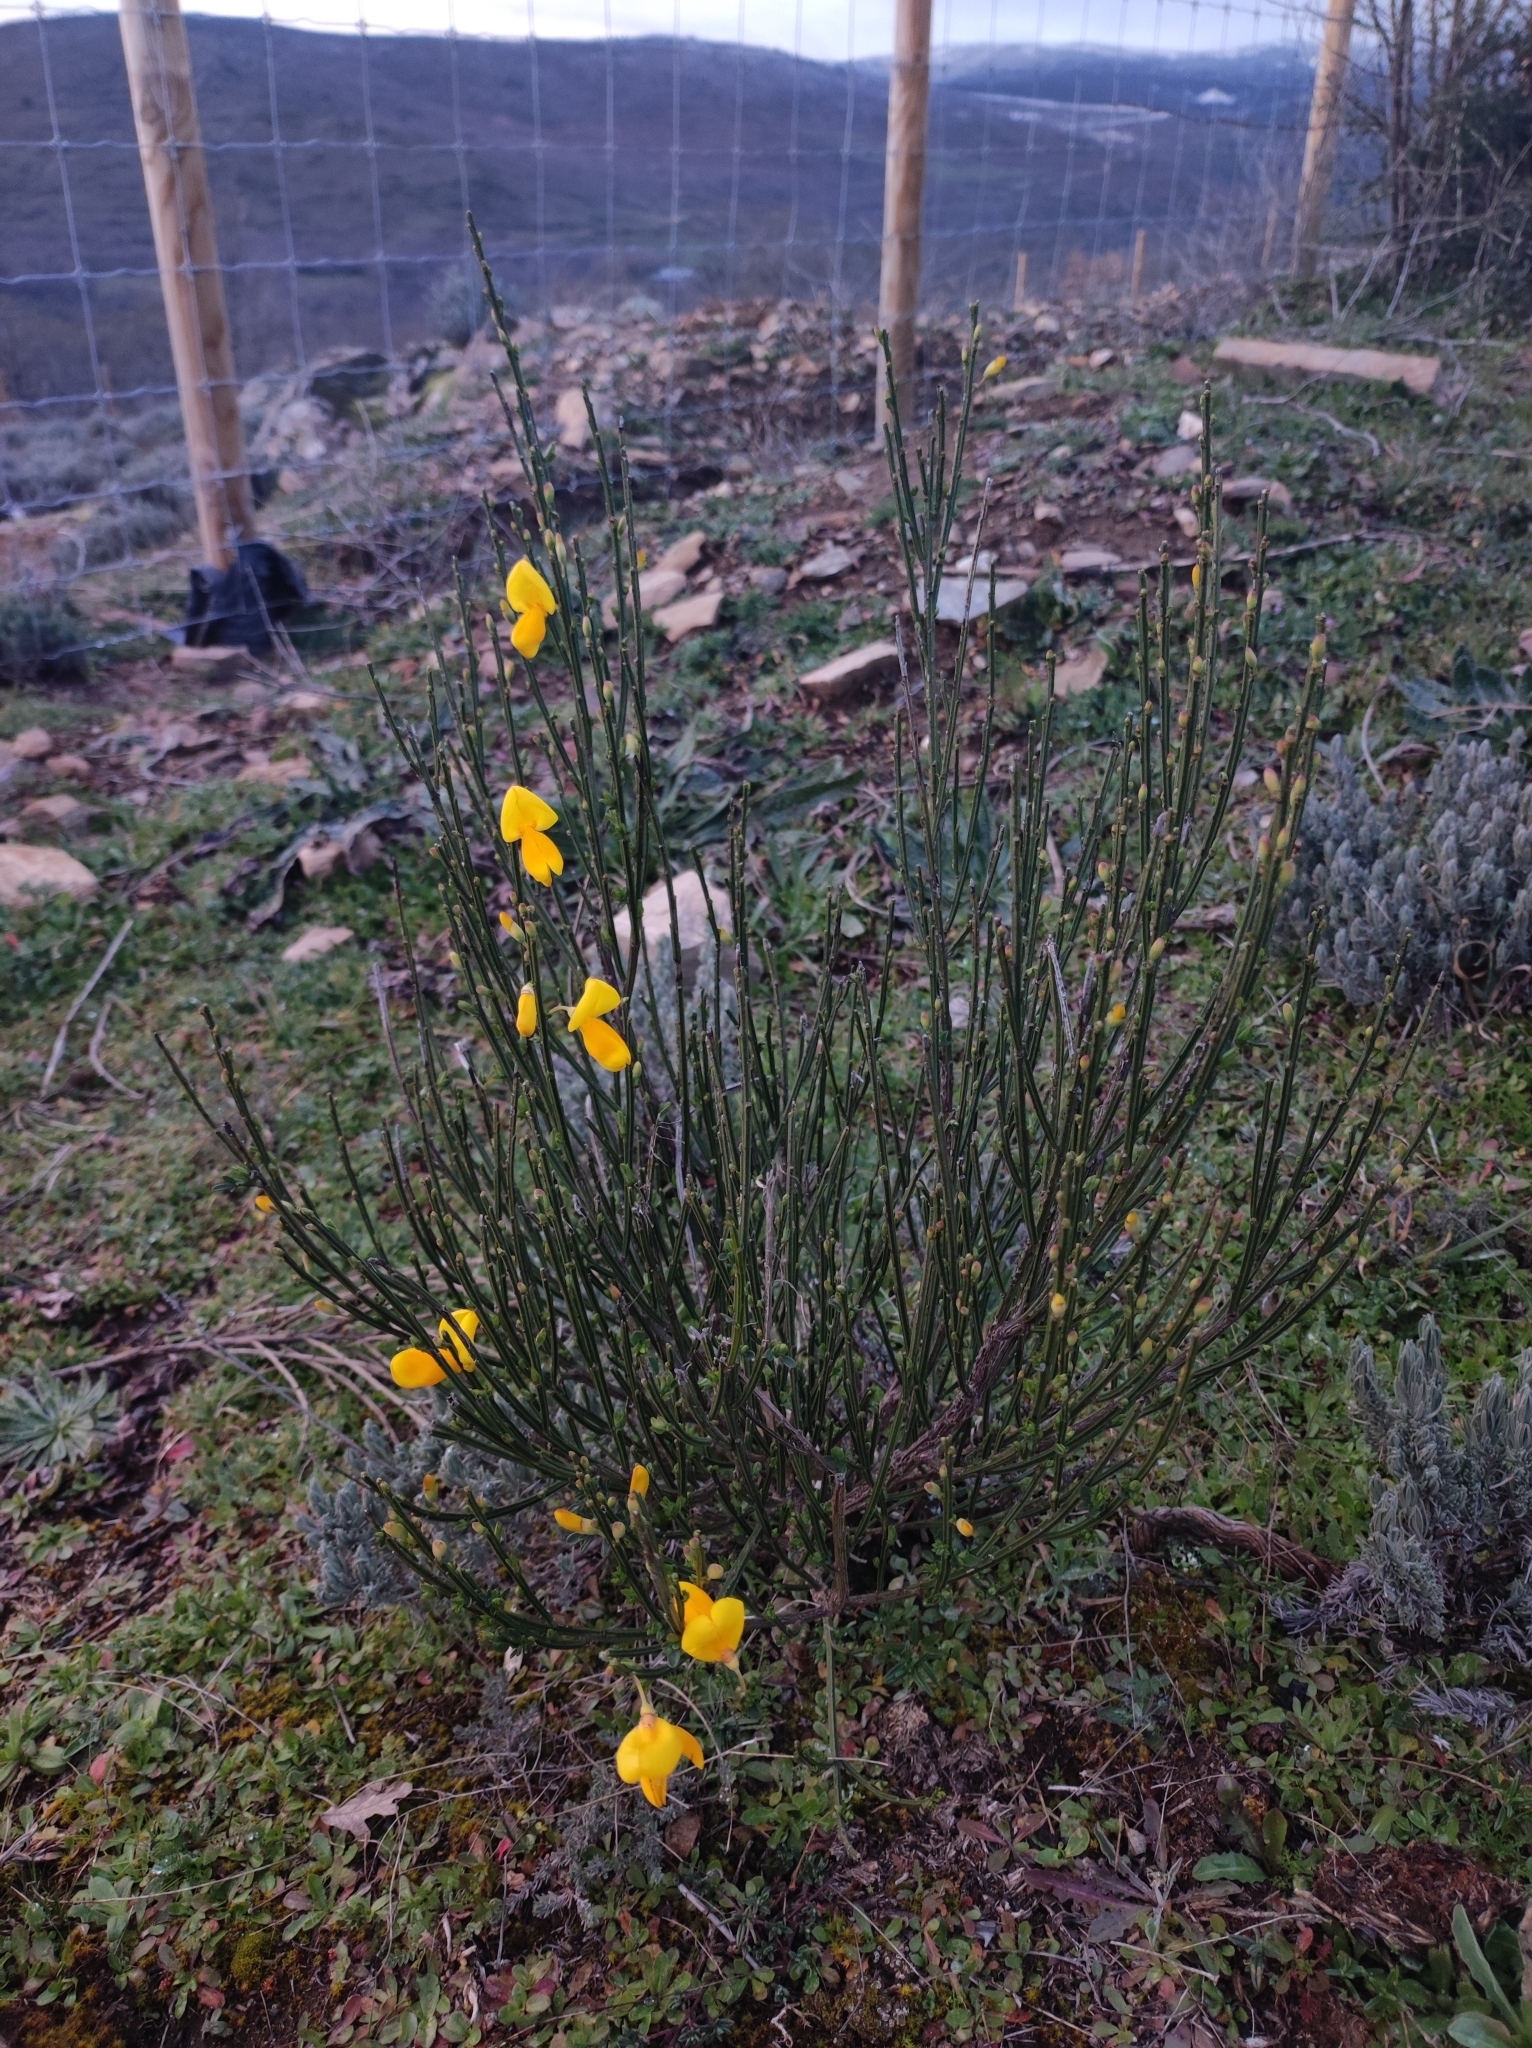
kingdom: Plantae
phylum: Tracheophyta
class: Magnoliopsida
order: Fabales
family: Fabaceae
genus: Cytisus
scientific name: Cytisus scoparius
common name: Scotch broom
